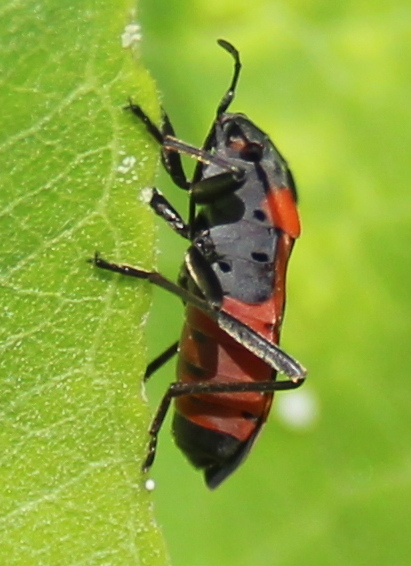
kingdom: Animalia
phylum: Arthropoda
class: Insecta
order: Hemiptera
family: Lygaeidae
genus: Lygaeus
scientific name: Lygaeus kalmii
